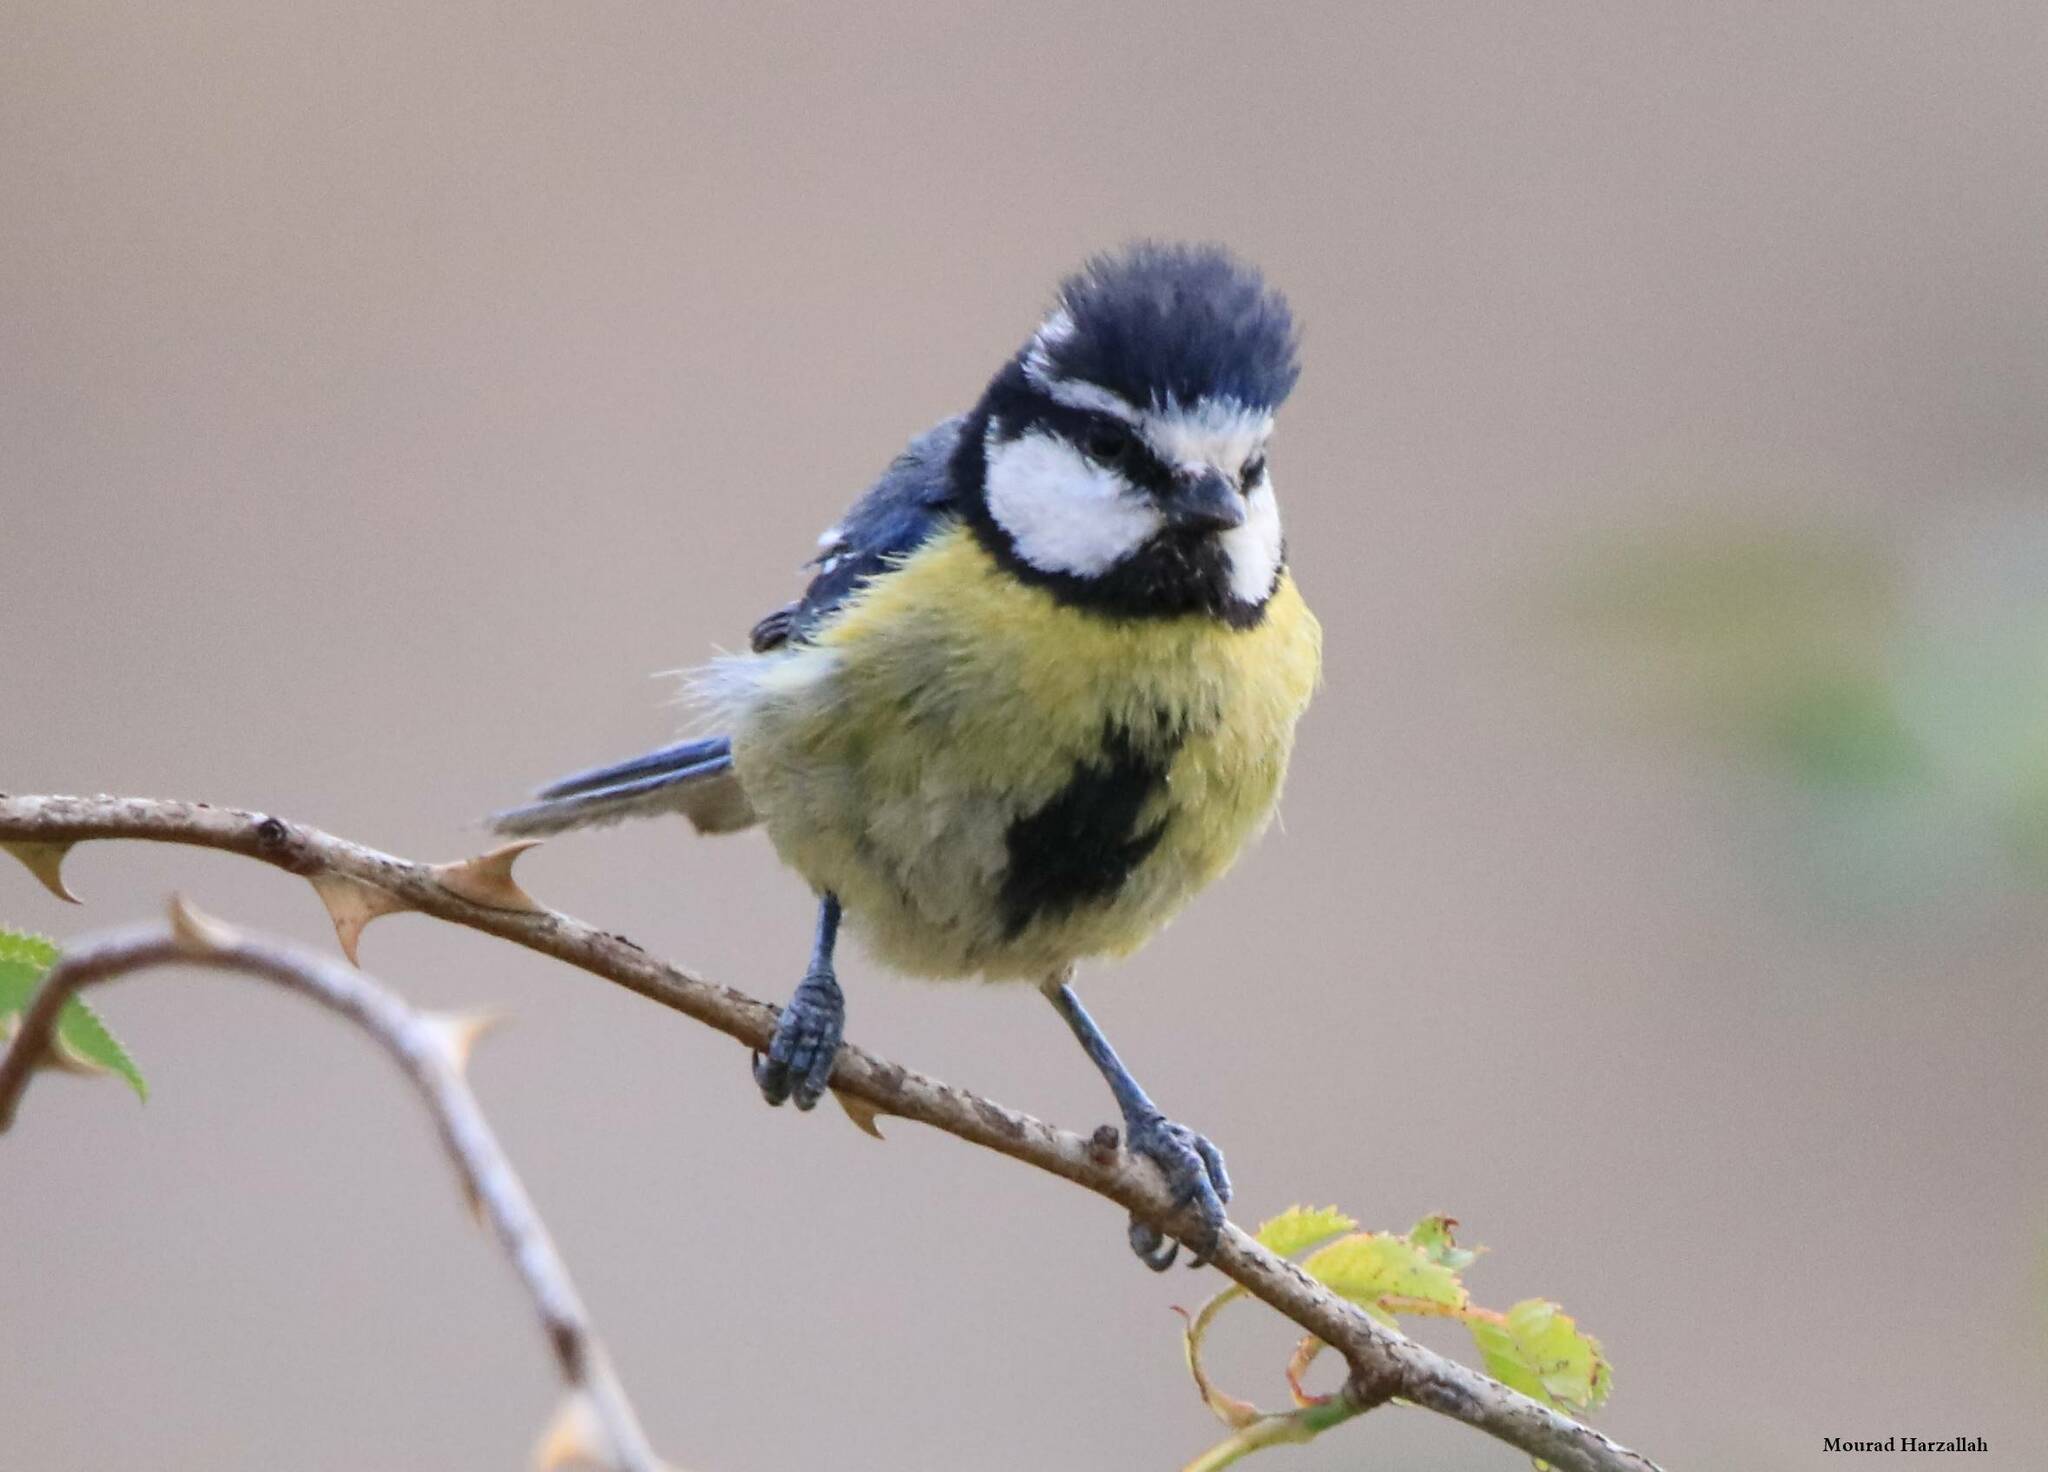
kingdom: Animalia
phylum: Chordata
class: Aves
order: Passeriformes
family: Paridae
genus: Cyanistes
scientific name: Cyanistes teneriffae
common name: African blue tit
